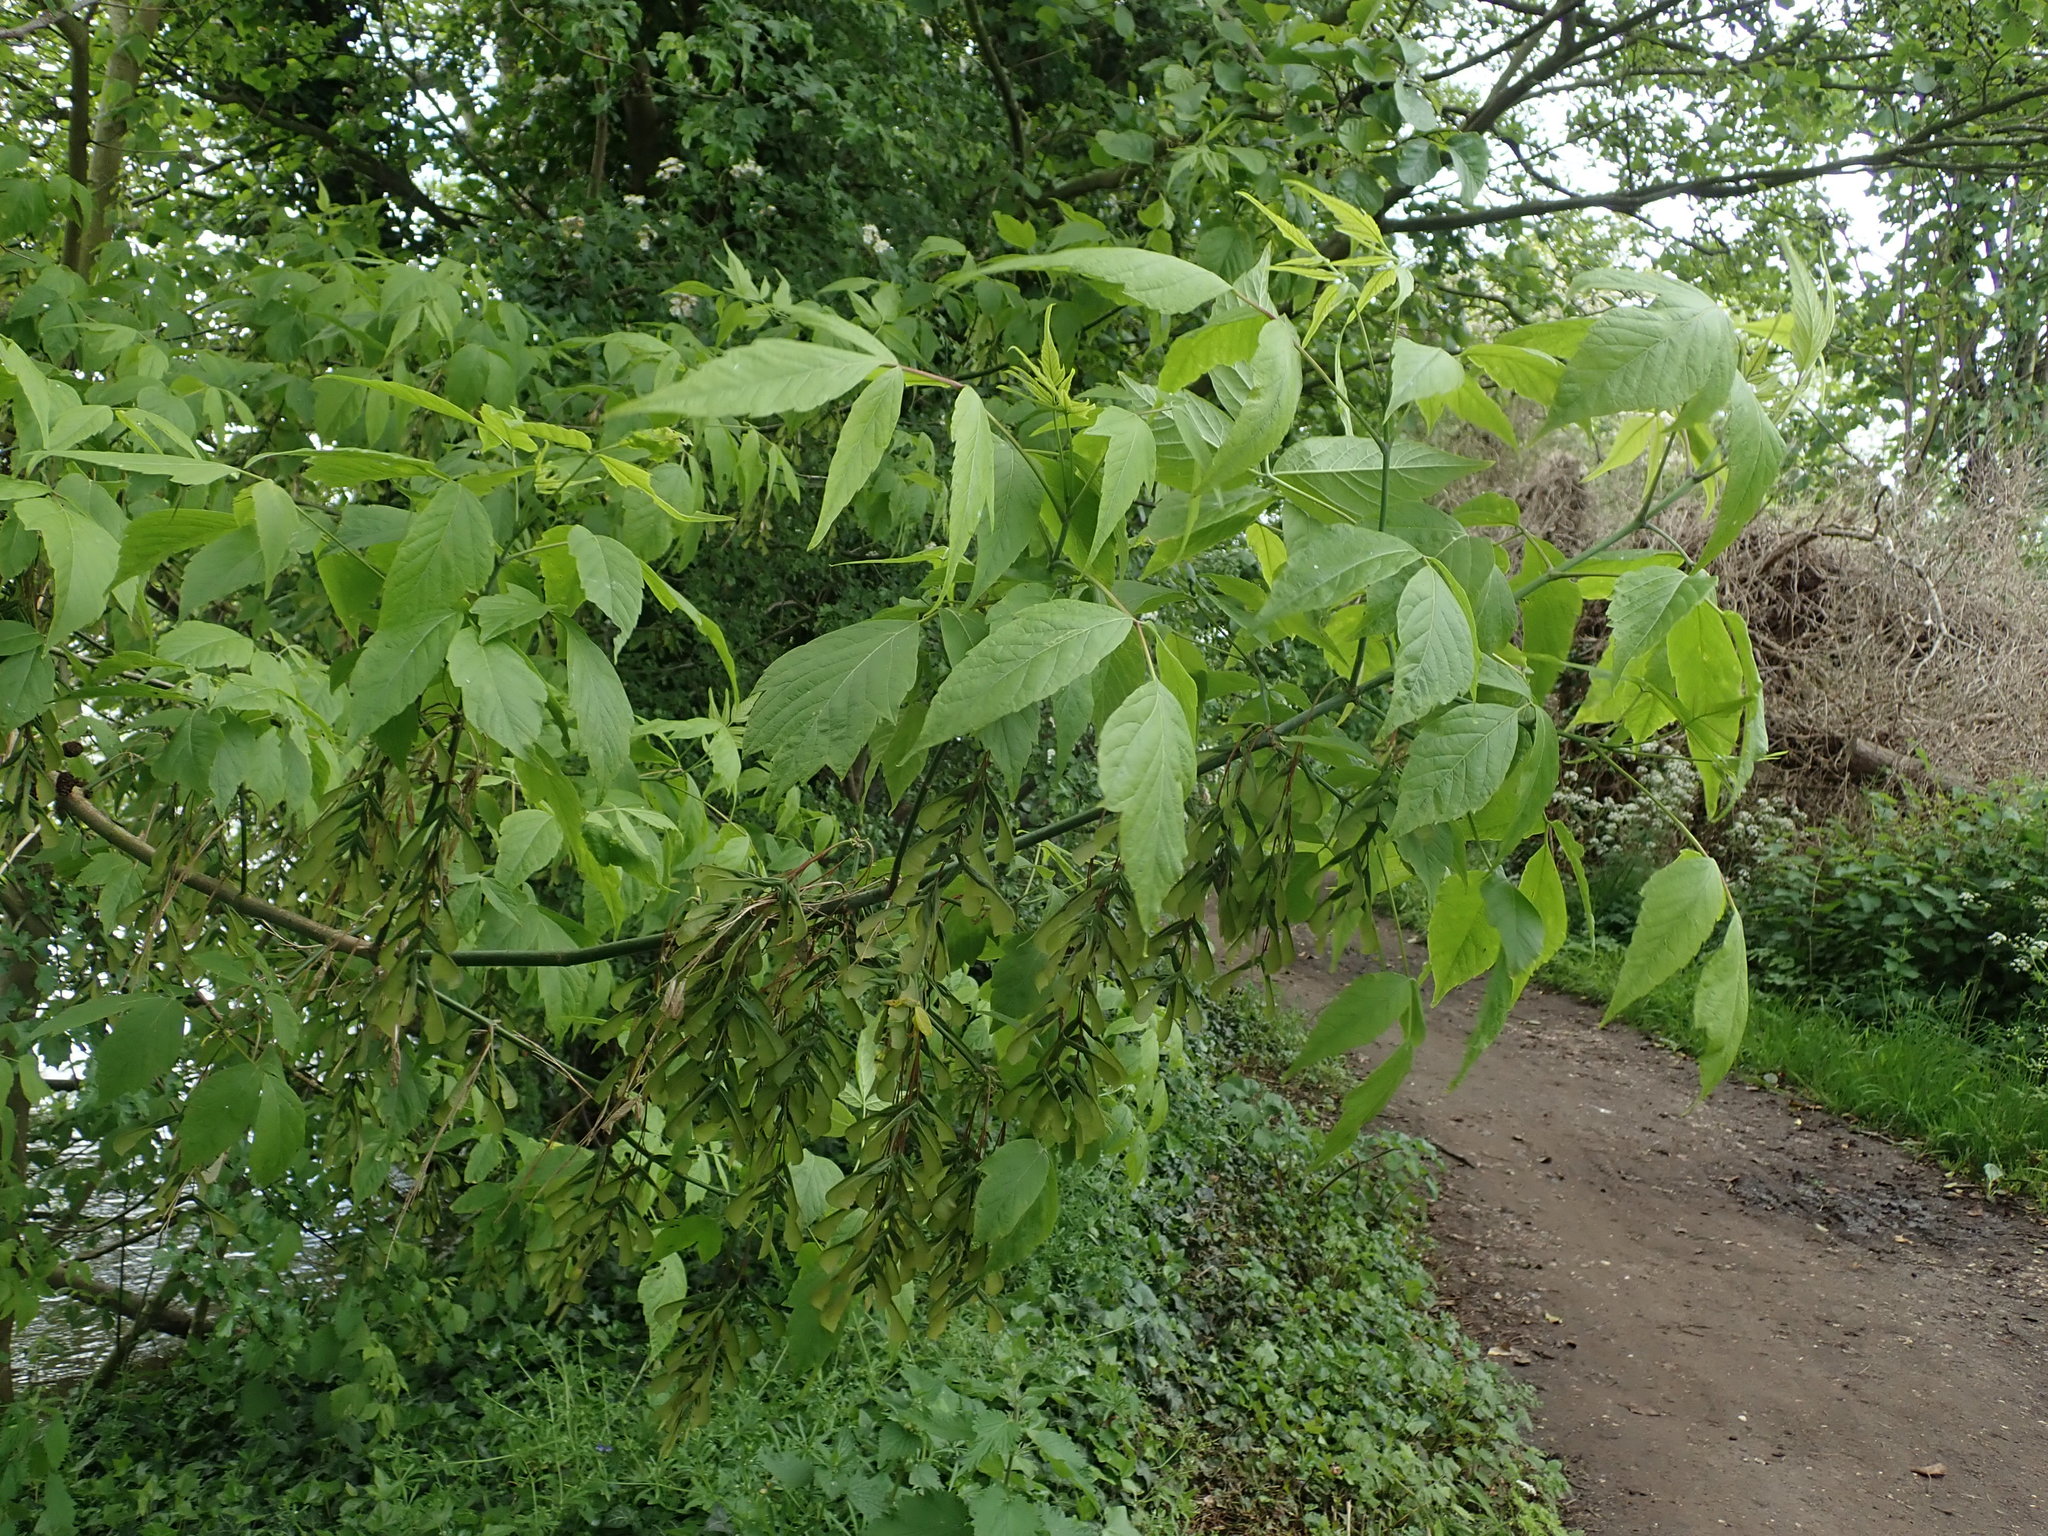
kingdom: Plantae
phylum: Tracheophyta
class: Magnoliopsida
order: Sapindales
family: Sapindaceae
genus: Acer
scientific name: Acer negundo
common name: Ashleaf maple
